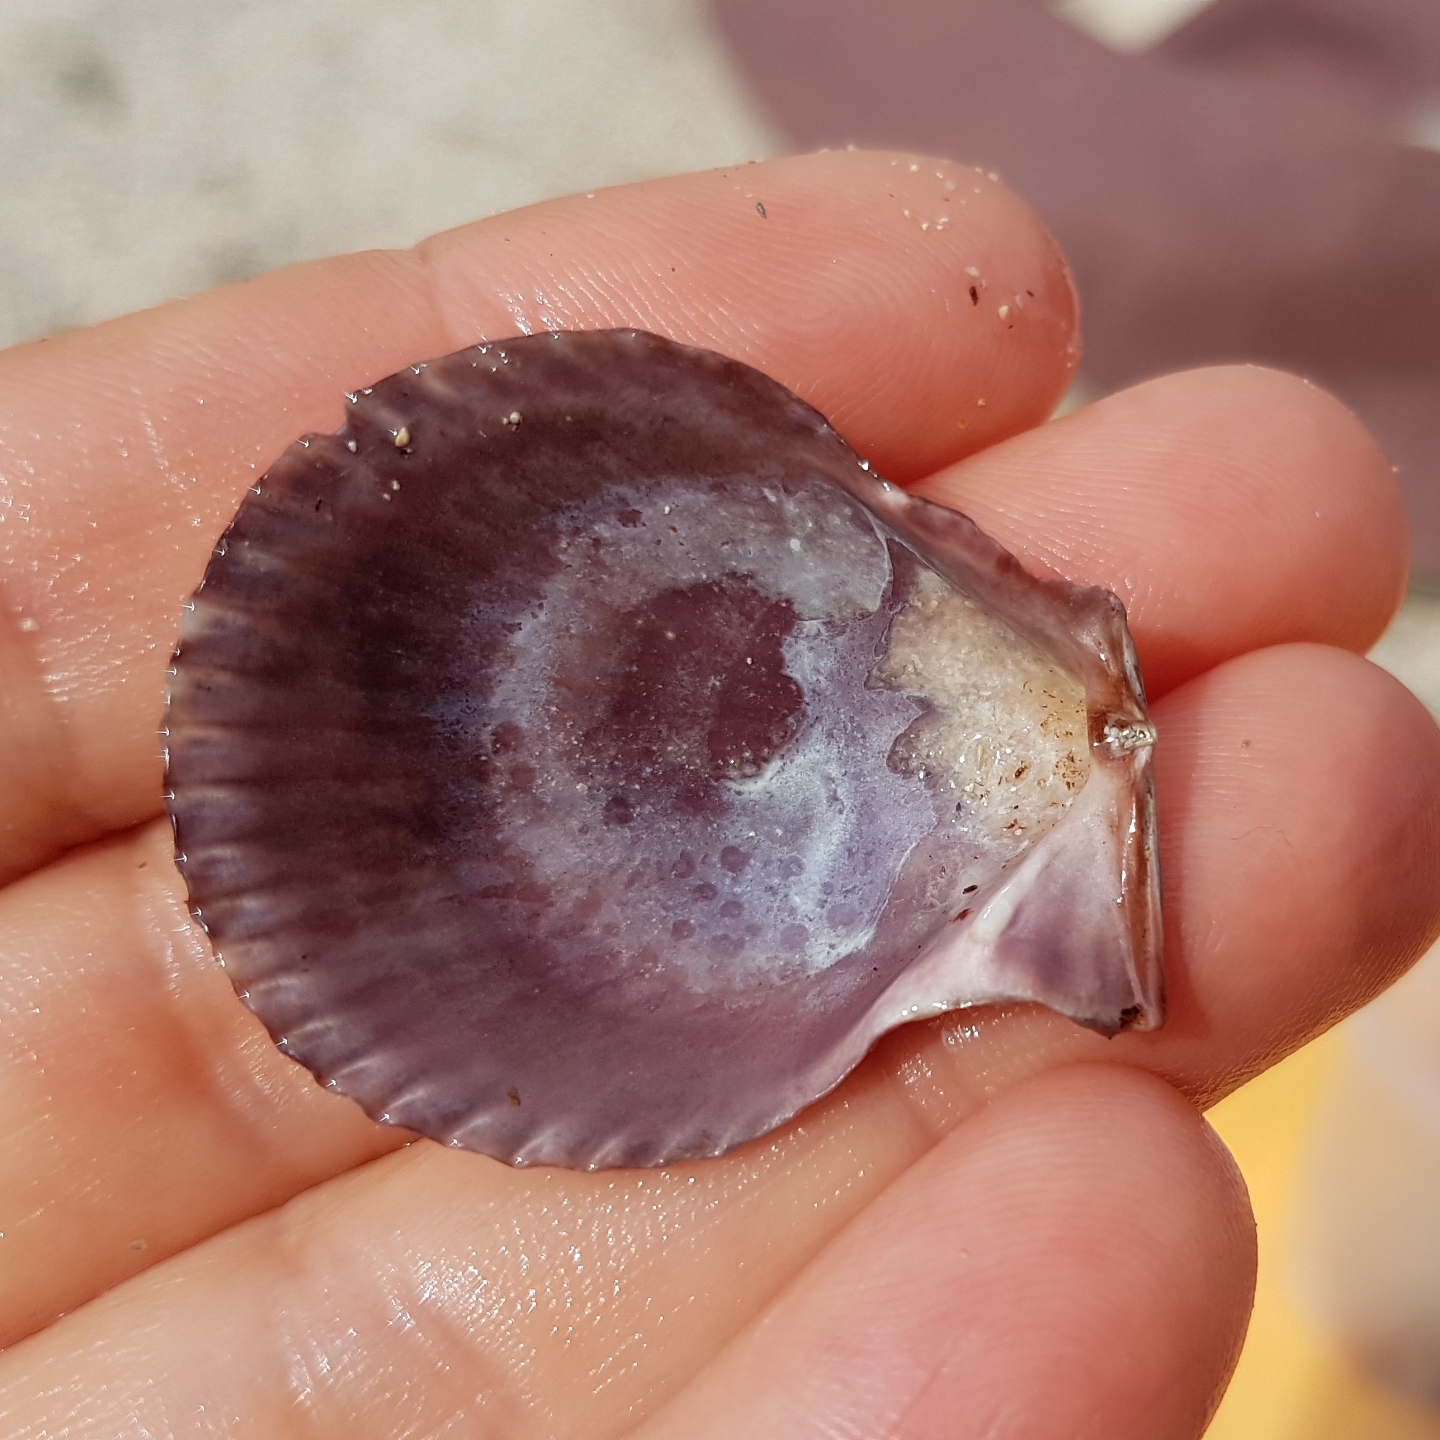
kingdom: Animalia
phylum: Mollusca
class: Bivalvia
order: Pectinida
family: Pectinidae
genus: Mimachlamys
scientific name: Mimachlamys varia
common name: Variegated scallop
